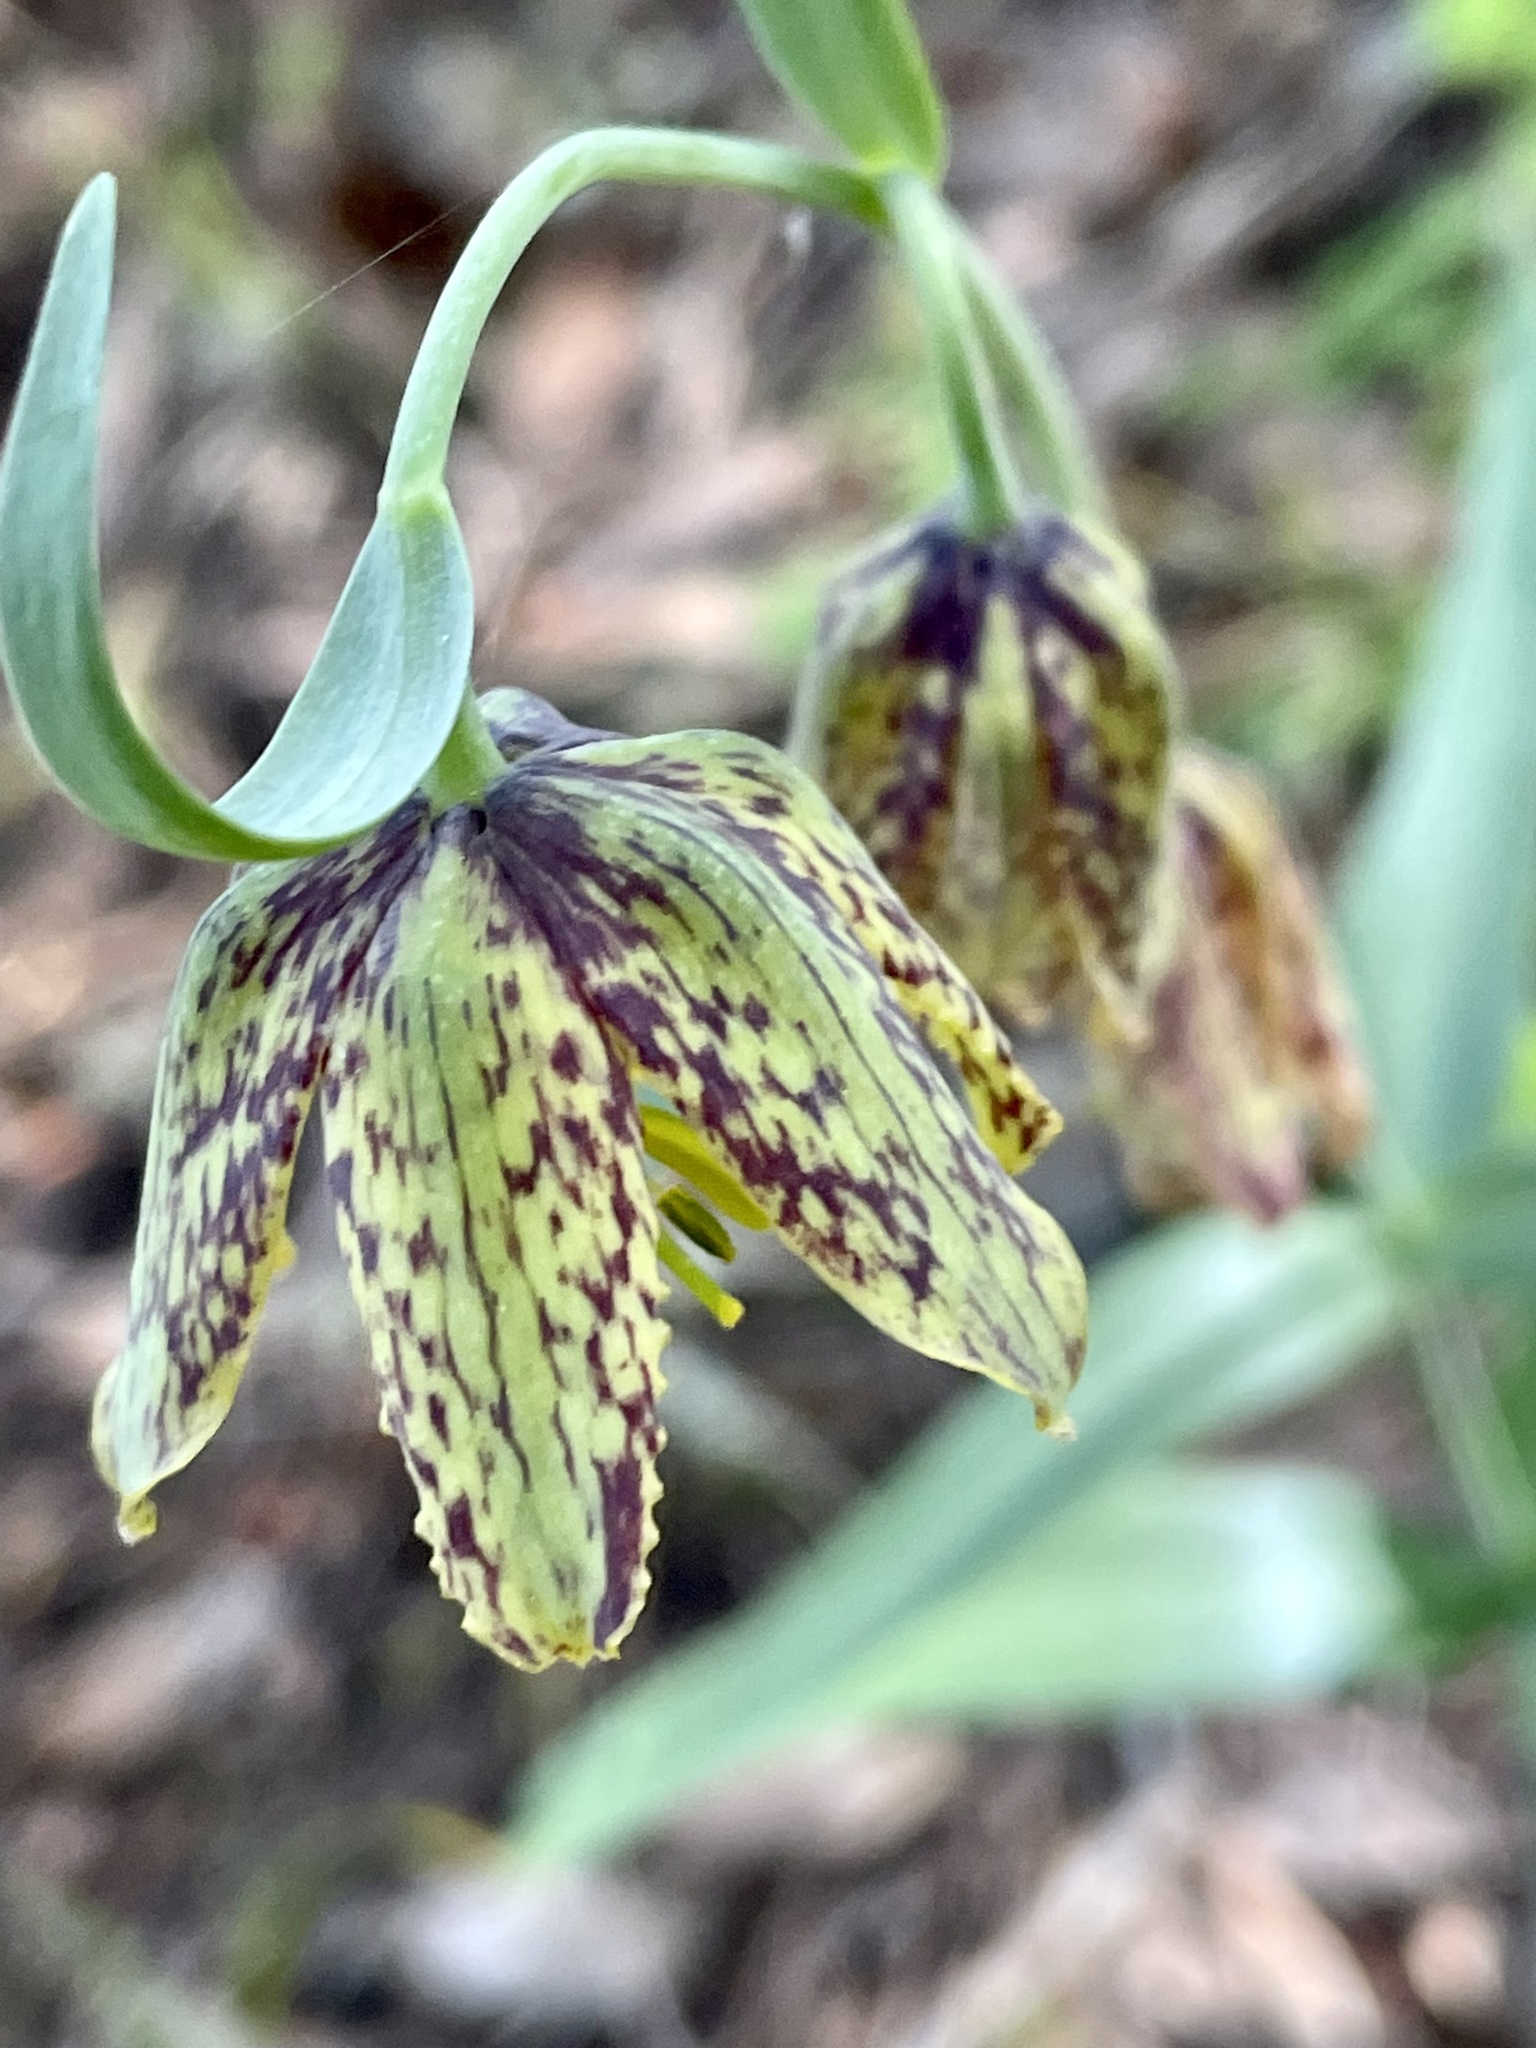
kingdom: Plantae
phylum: Tracheophyta
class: Liliopsida
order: Liliales
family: Liliaceae
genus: Fritillaria
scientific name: Fritillaria affinis
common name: Ojai fritillary
